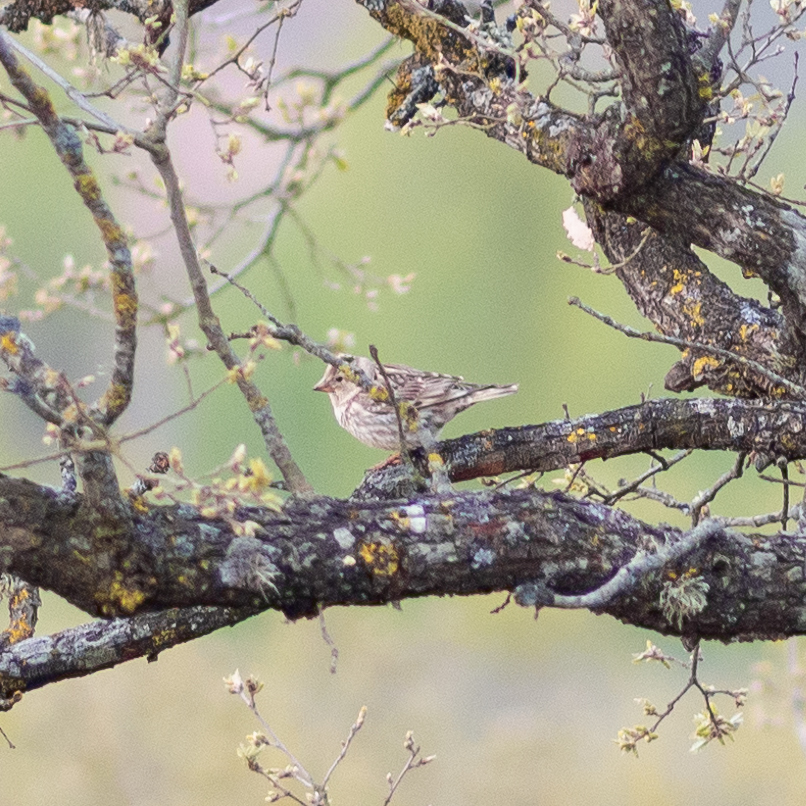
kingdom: Animalia
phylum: Chordata
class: Aves
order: Passeriformes
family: Passeridae
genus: Petronia
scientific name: Petronia petronia
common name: Rock sparrow
